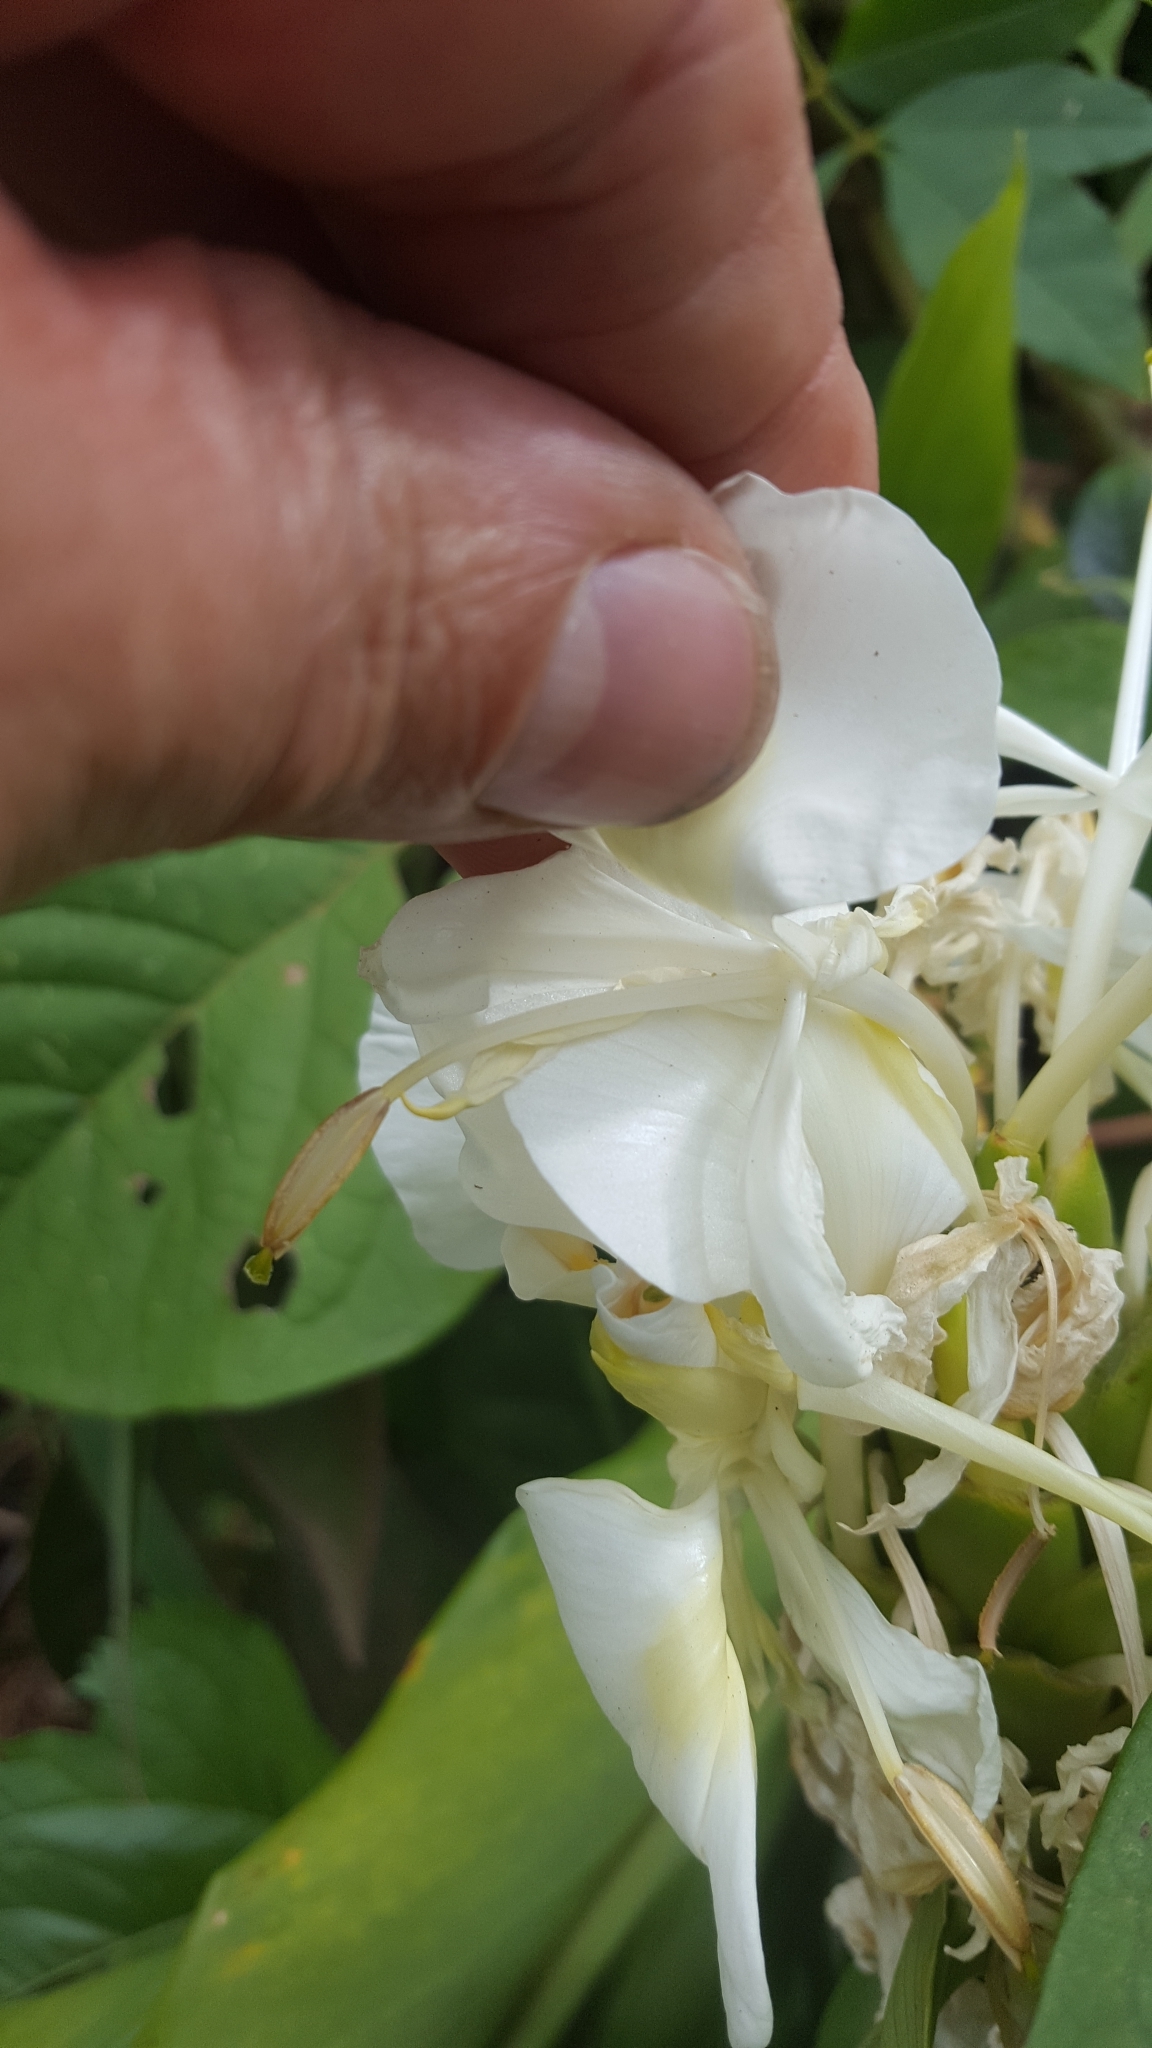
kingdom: Plantae
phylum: Tracheophyta
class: Liliopsida
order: Zingiberales
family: Zingiberaceae
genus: Hedychium
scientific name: Hedychium coronarium
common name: White garland-lily
